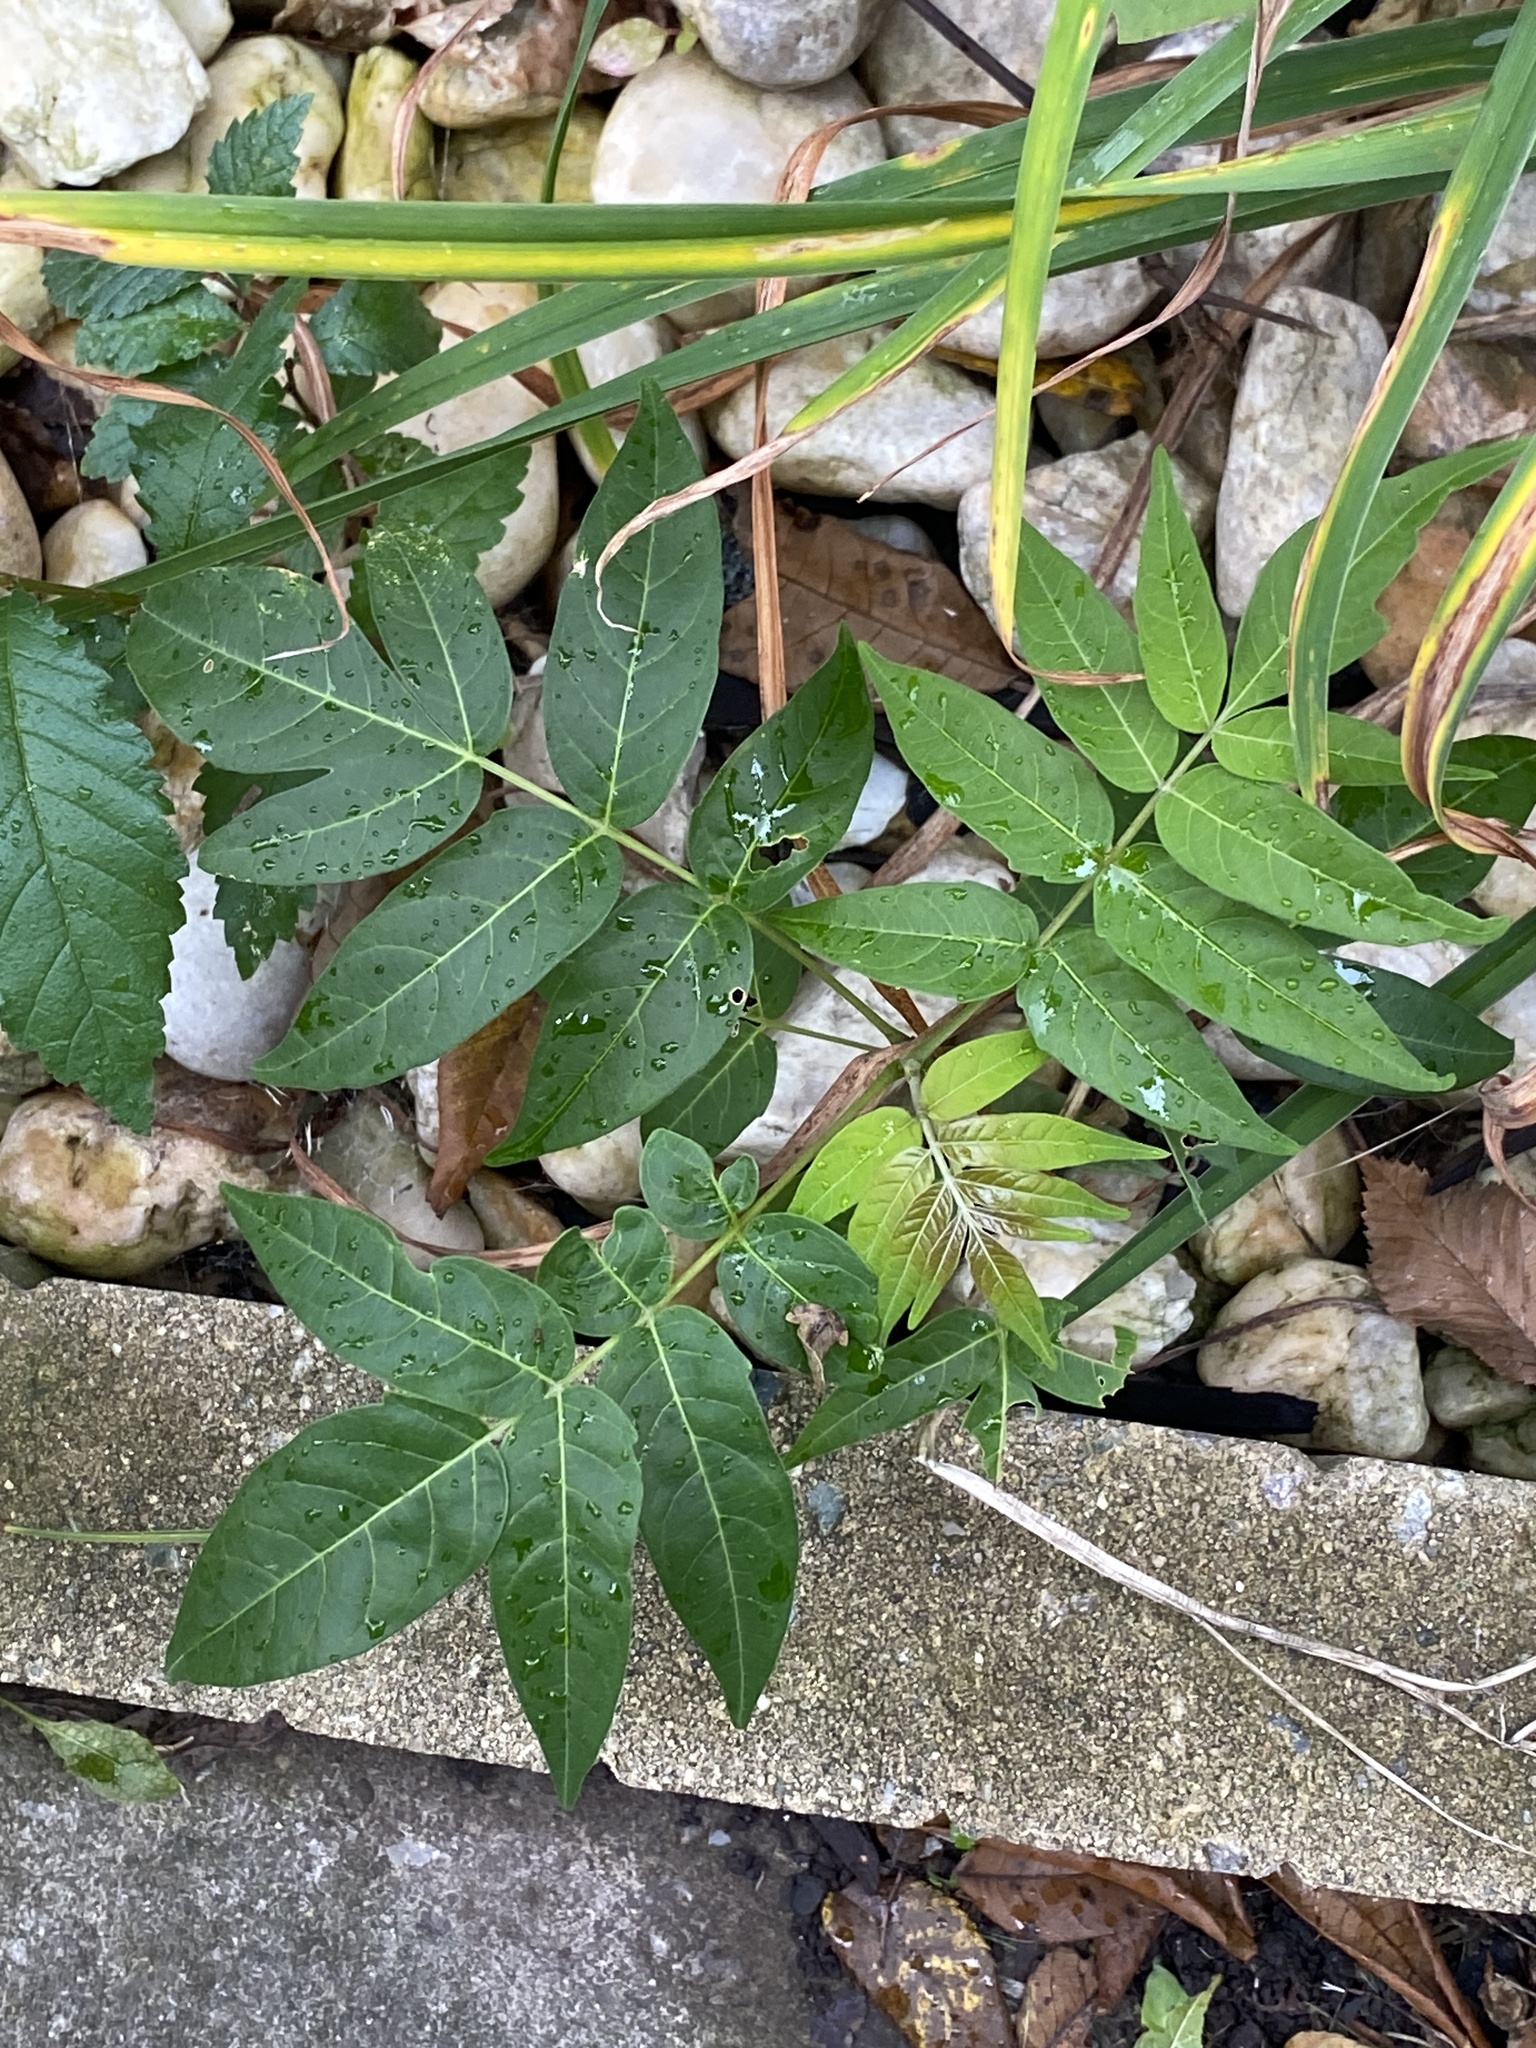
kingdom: Plantae
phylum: Tracheophyta
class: Magnoliopsida
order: Sapindales
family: Simaroubaceae
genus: Ailanthus
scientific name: Ailanthus altissima
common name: Tree-of-heaven
